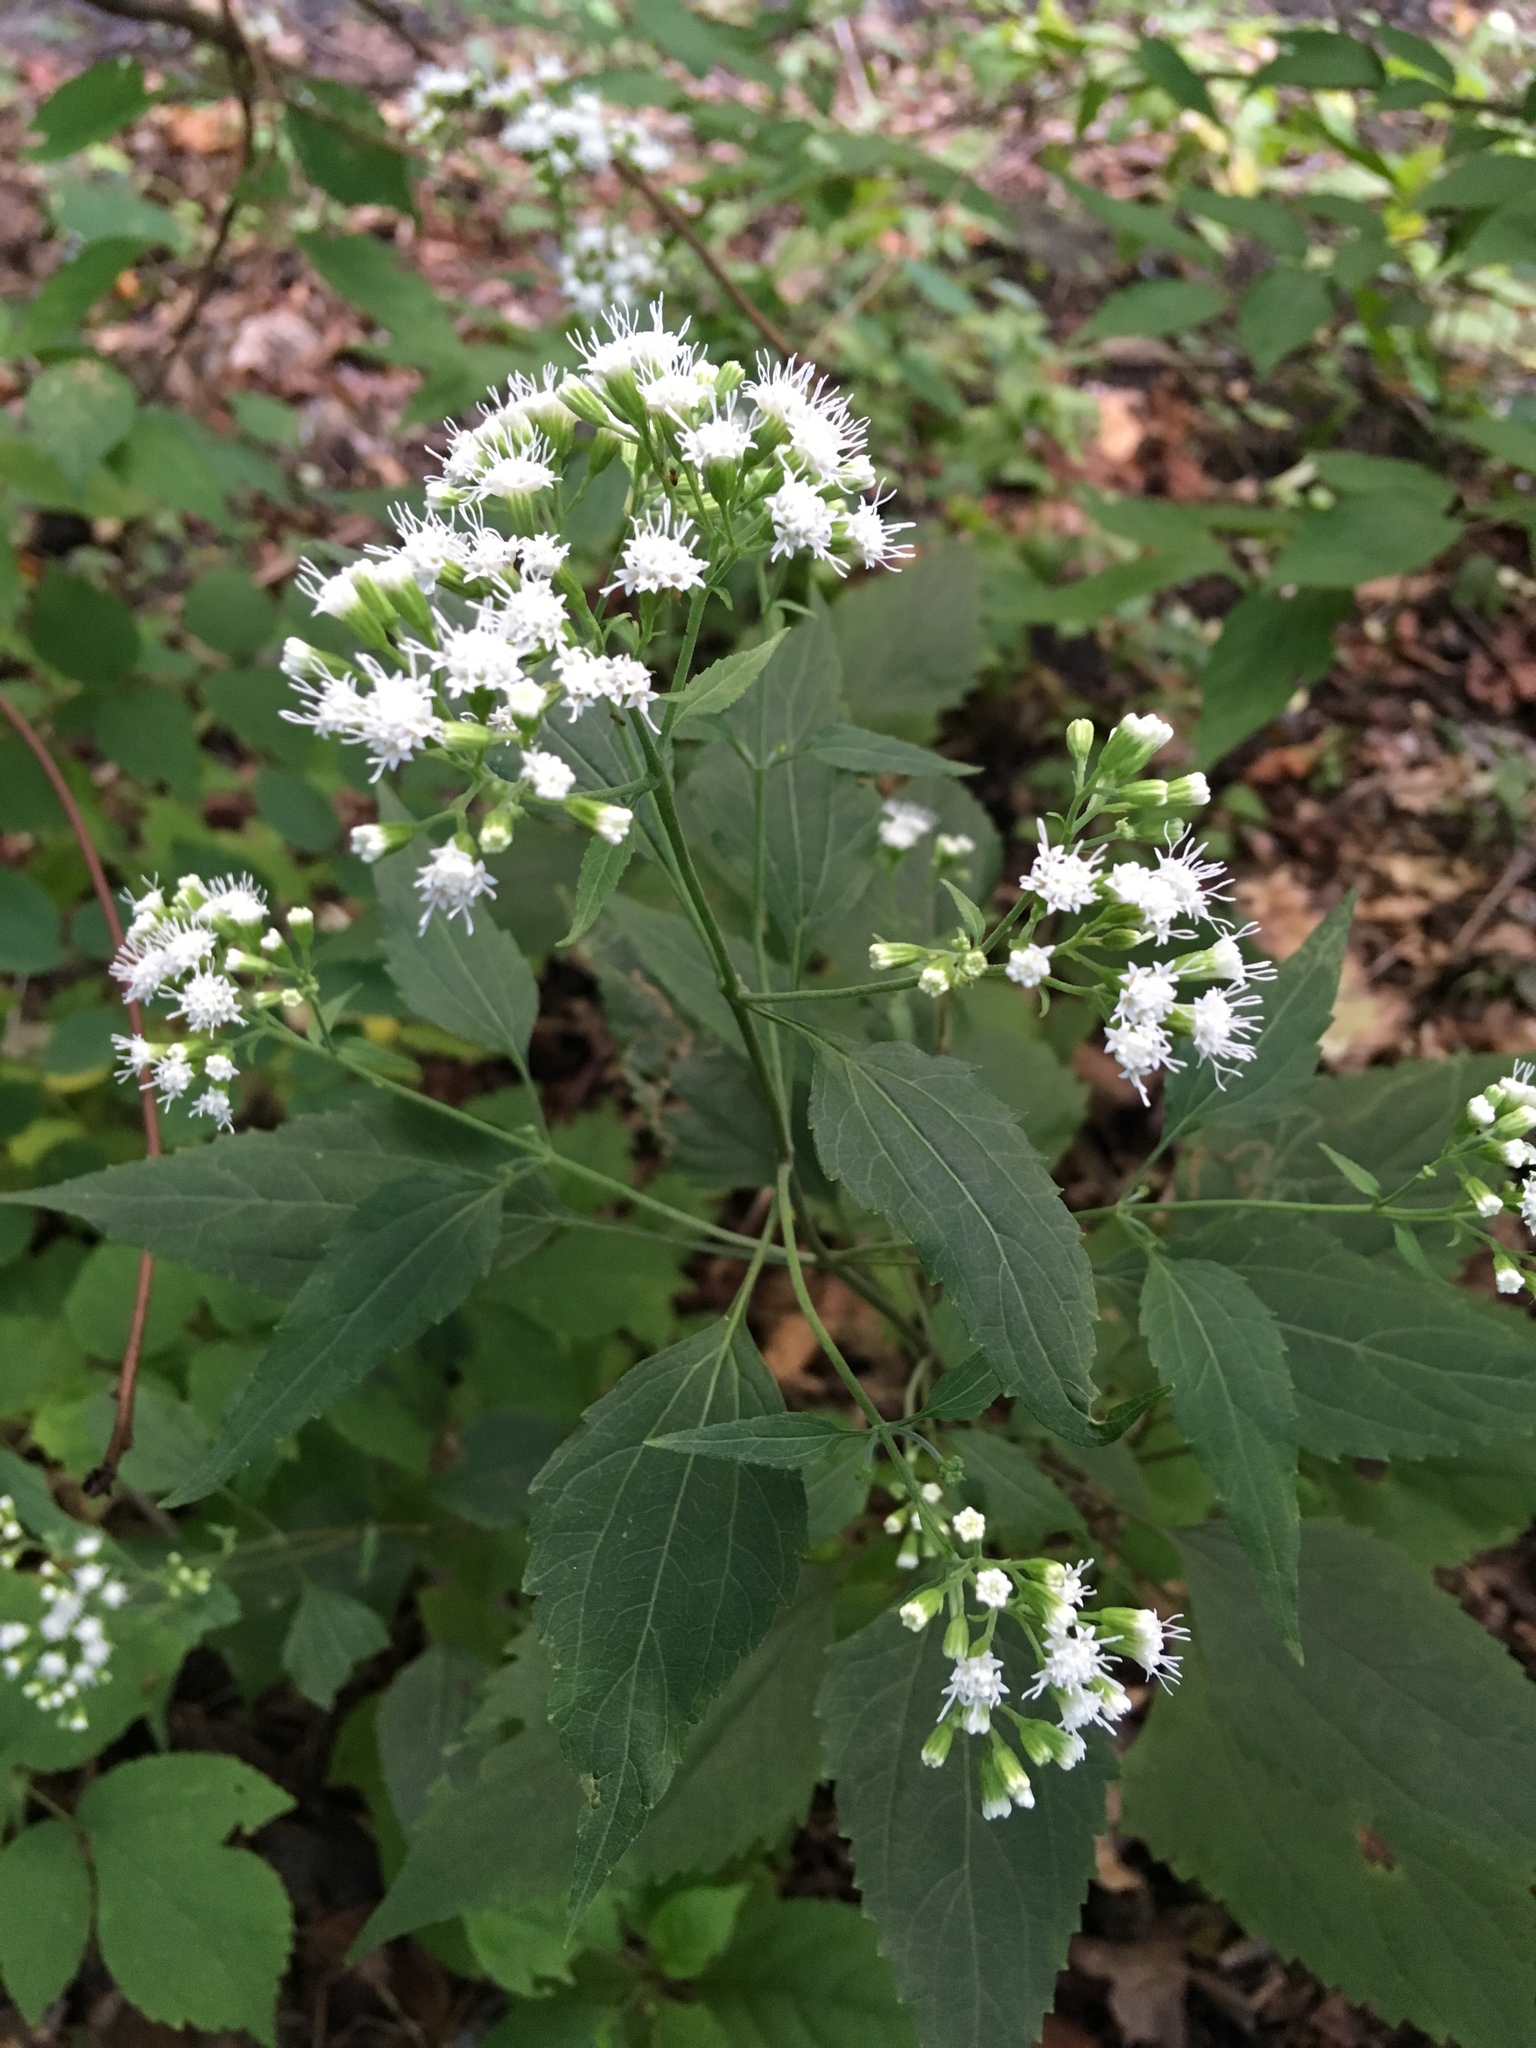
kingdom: Plantae
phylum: Tracheophyta
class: Magnoliopsida
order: Asterales
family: Asteraceae
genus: Ageratina
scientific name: Ageratina altissima
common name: White snakeroot
